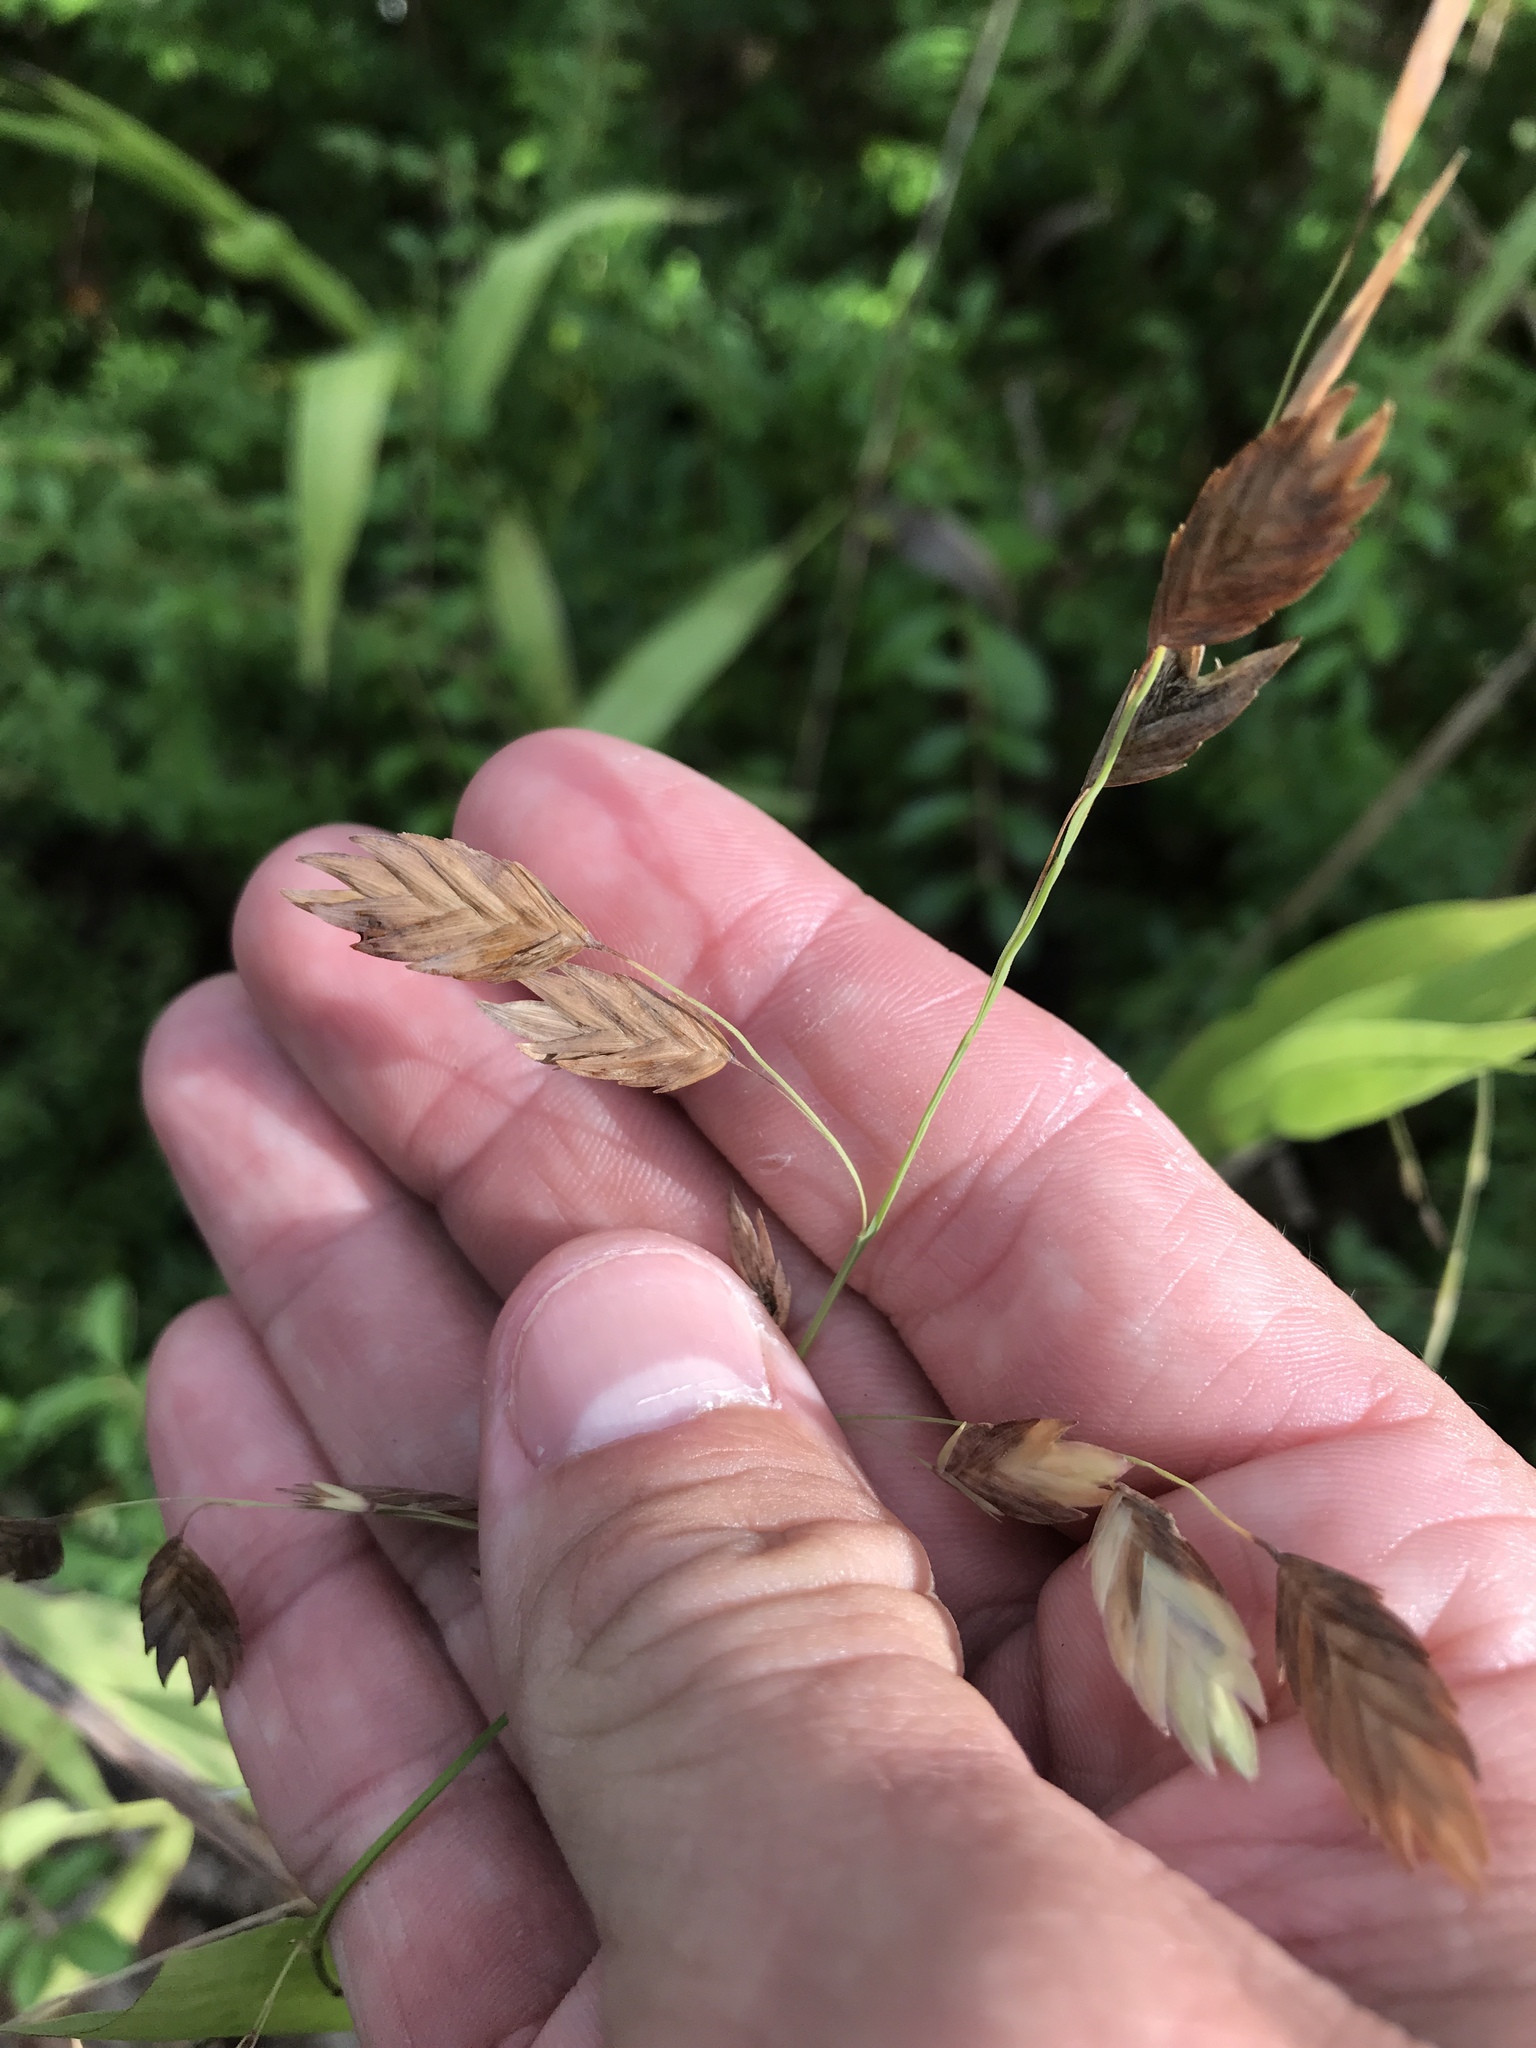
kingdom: Plantae
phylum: Tracheophyta
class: Liliopsida
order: Poales
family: Poaceae
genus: Chasmanthium
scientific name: Chasmanthium latifolium
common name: Broad-leaved chasmanthium
